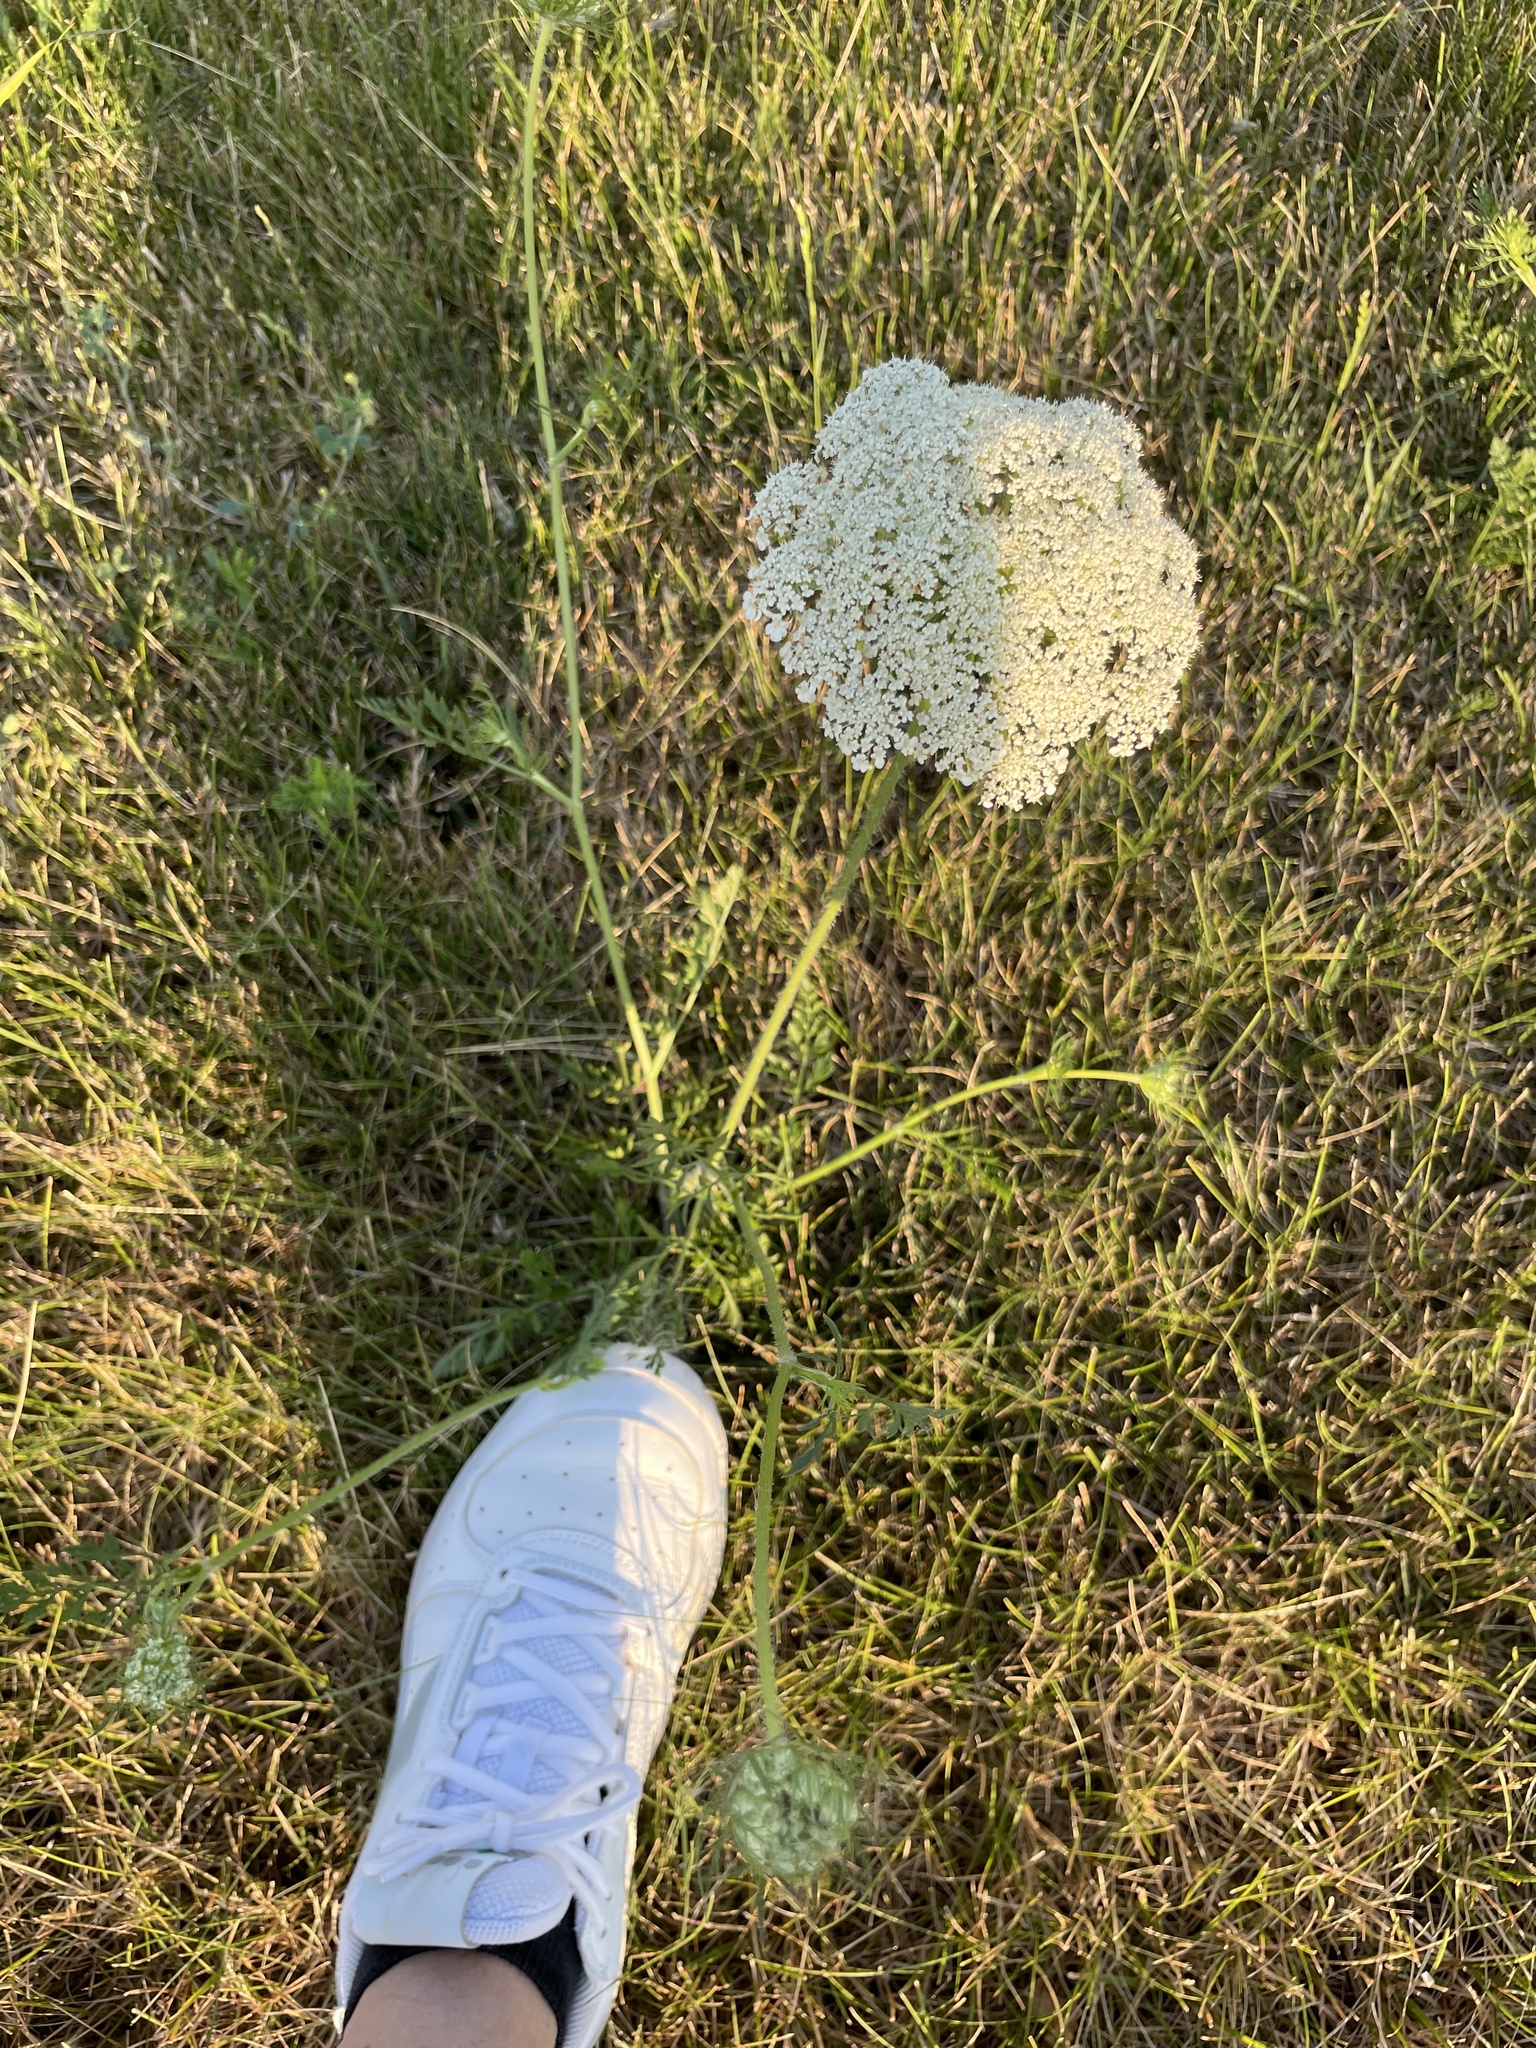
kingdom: Plantae
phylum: Tracheophyta
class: Magnoliopsida
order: Apiales
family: Apiaceae
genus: Daucus
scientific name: Daucus carota
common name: Wild carrot
